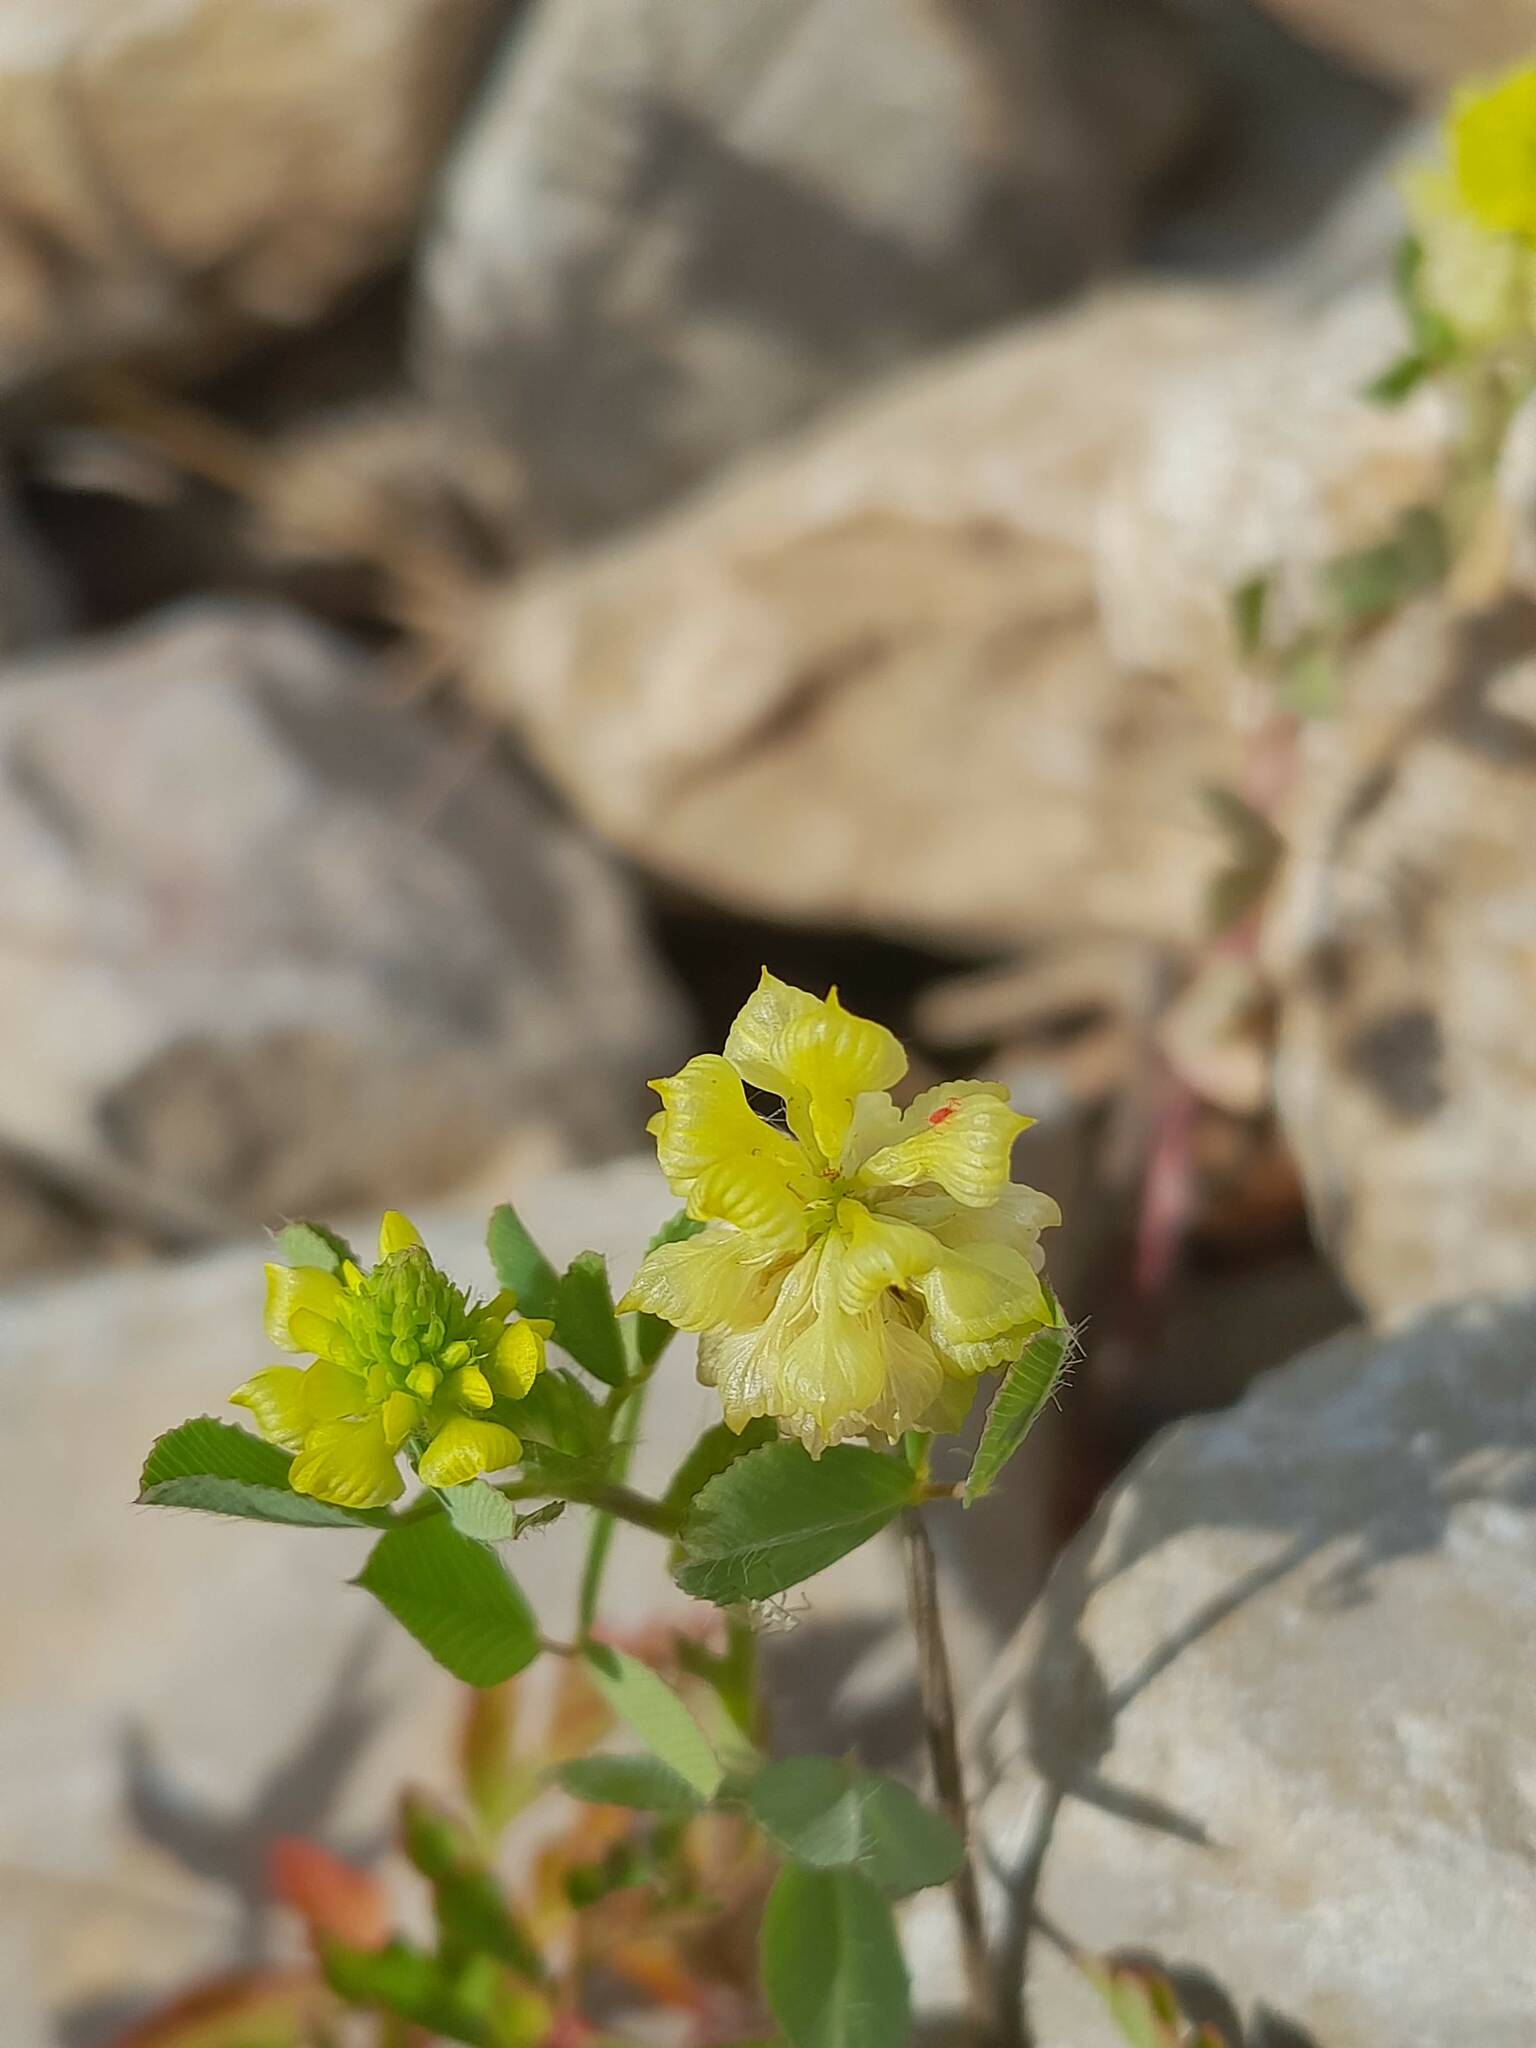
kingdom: Plantae
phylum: Tracheophyta
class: Magnoliopsida
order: Fabales
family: Fabaceae
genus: Trifolium
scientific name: Trifolium campestre
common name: Field clover
